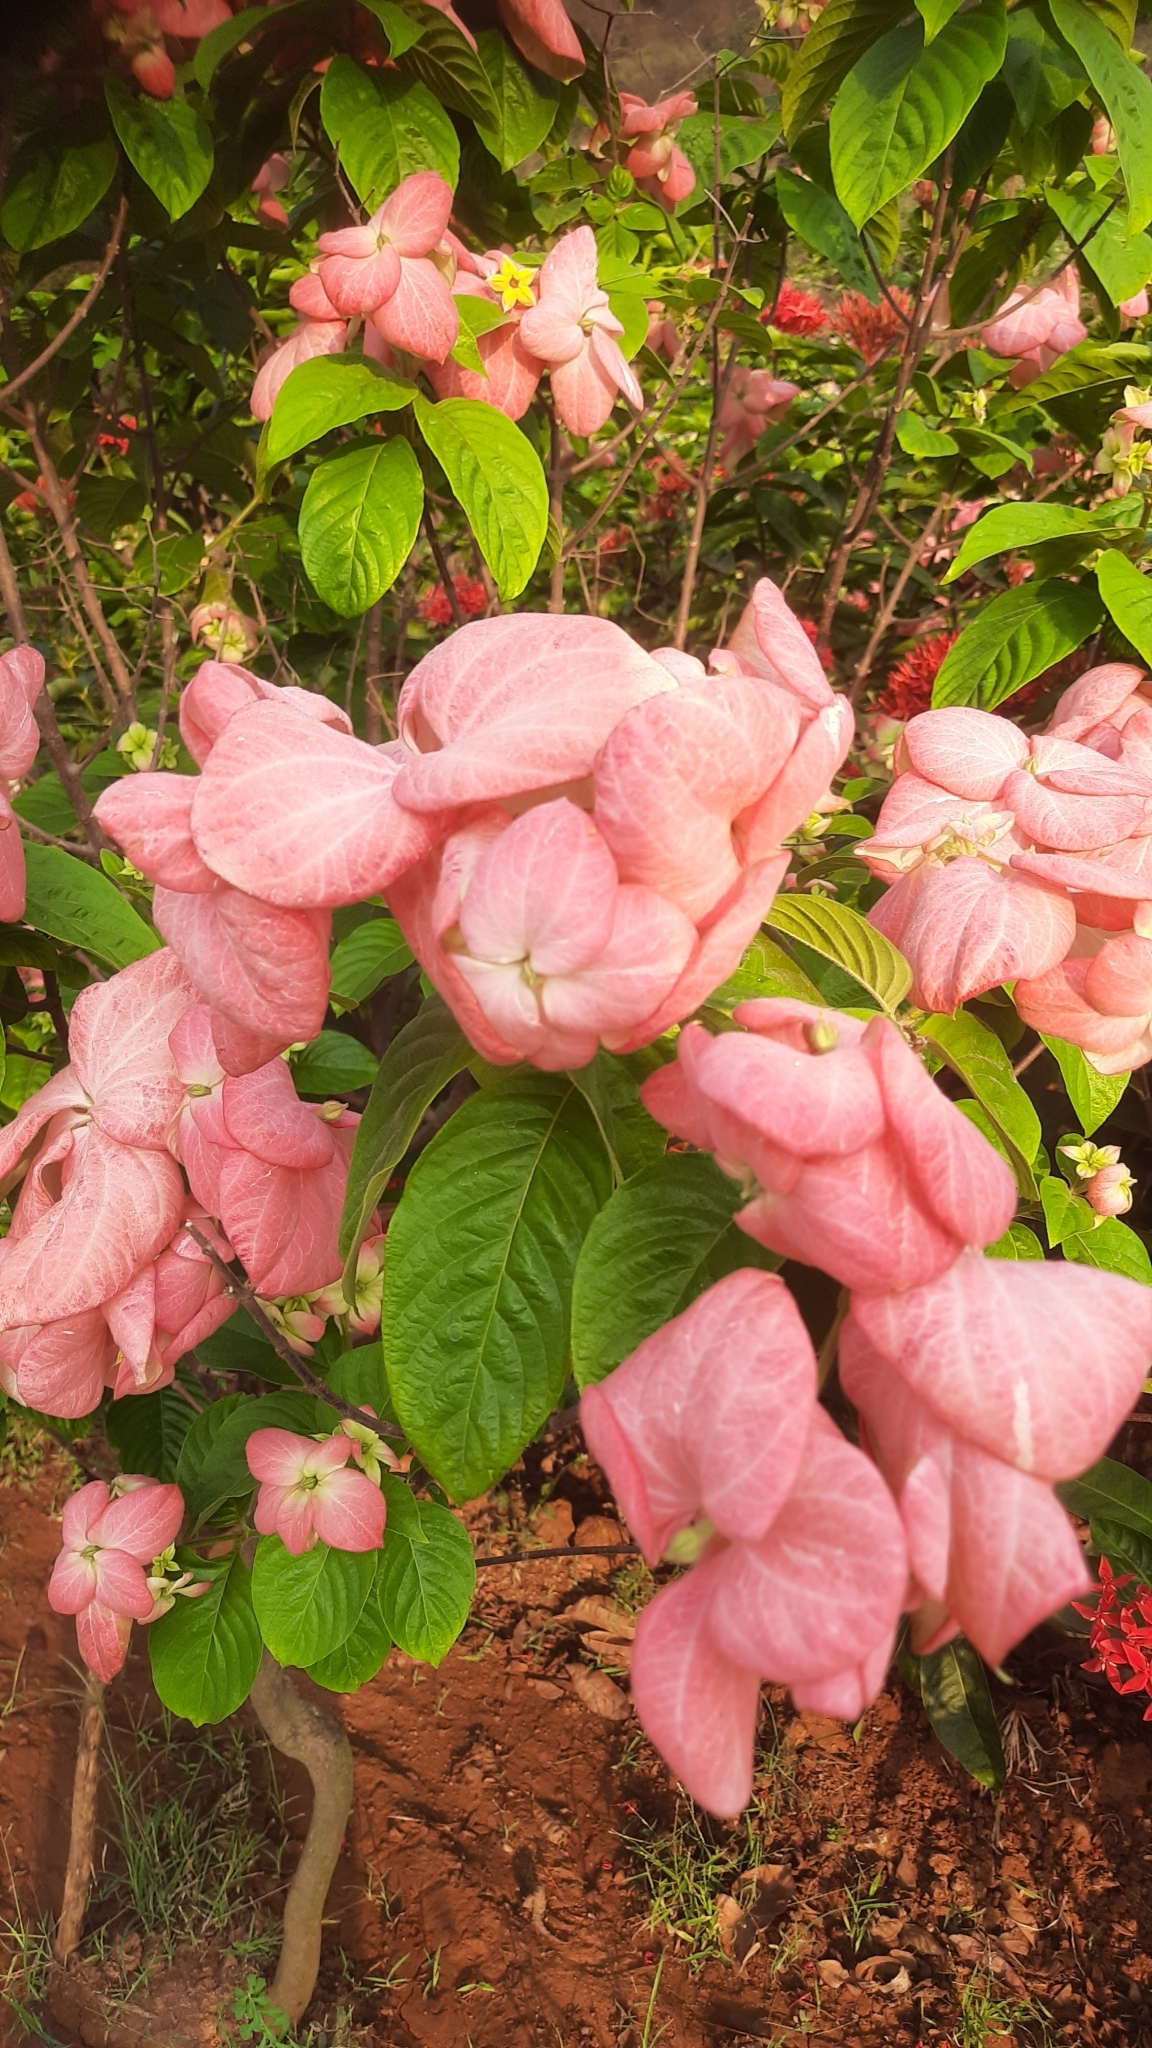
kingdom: Plantae
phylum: Tracheophyta
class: Magnoliopsida
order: Gentianales
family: Rubiaceae
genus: Mussaenda
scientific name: Mussaenda philippica
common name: Philippine mussaenda
